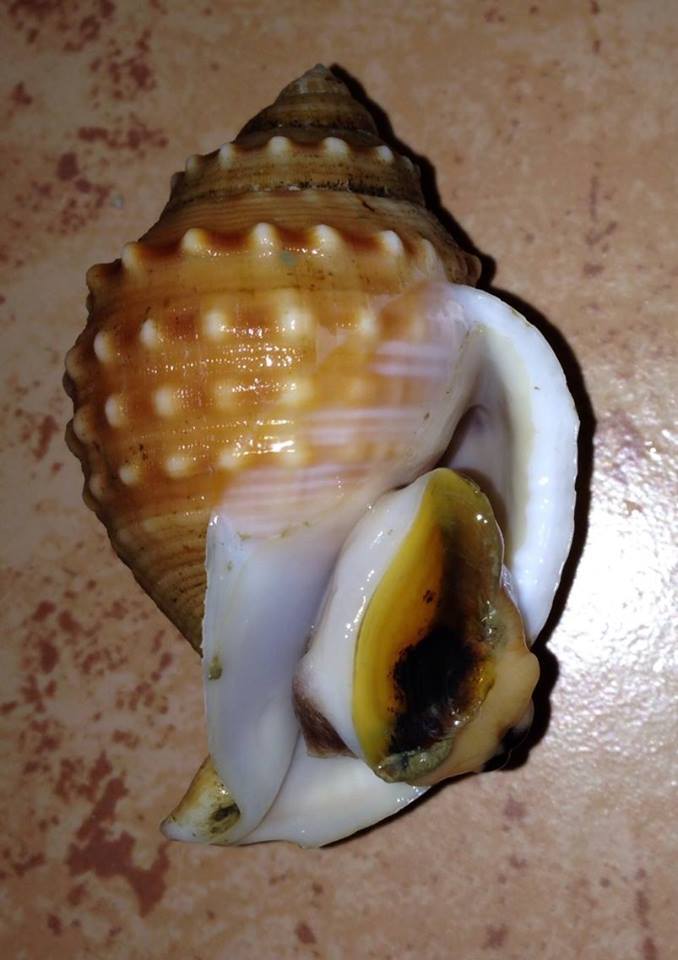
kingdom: Animalia
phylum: Mollusca
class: Gastropoda
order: Littorinimorpha
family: Cassidae
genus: Galeodea
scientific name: Galeodea echinophora
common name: Mediterranean spiny bonnet
